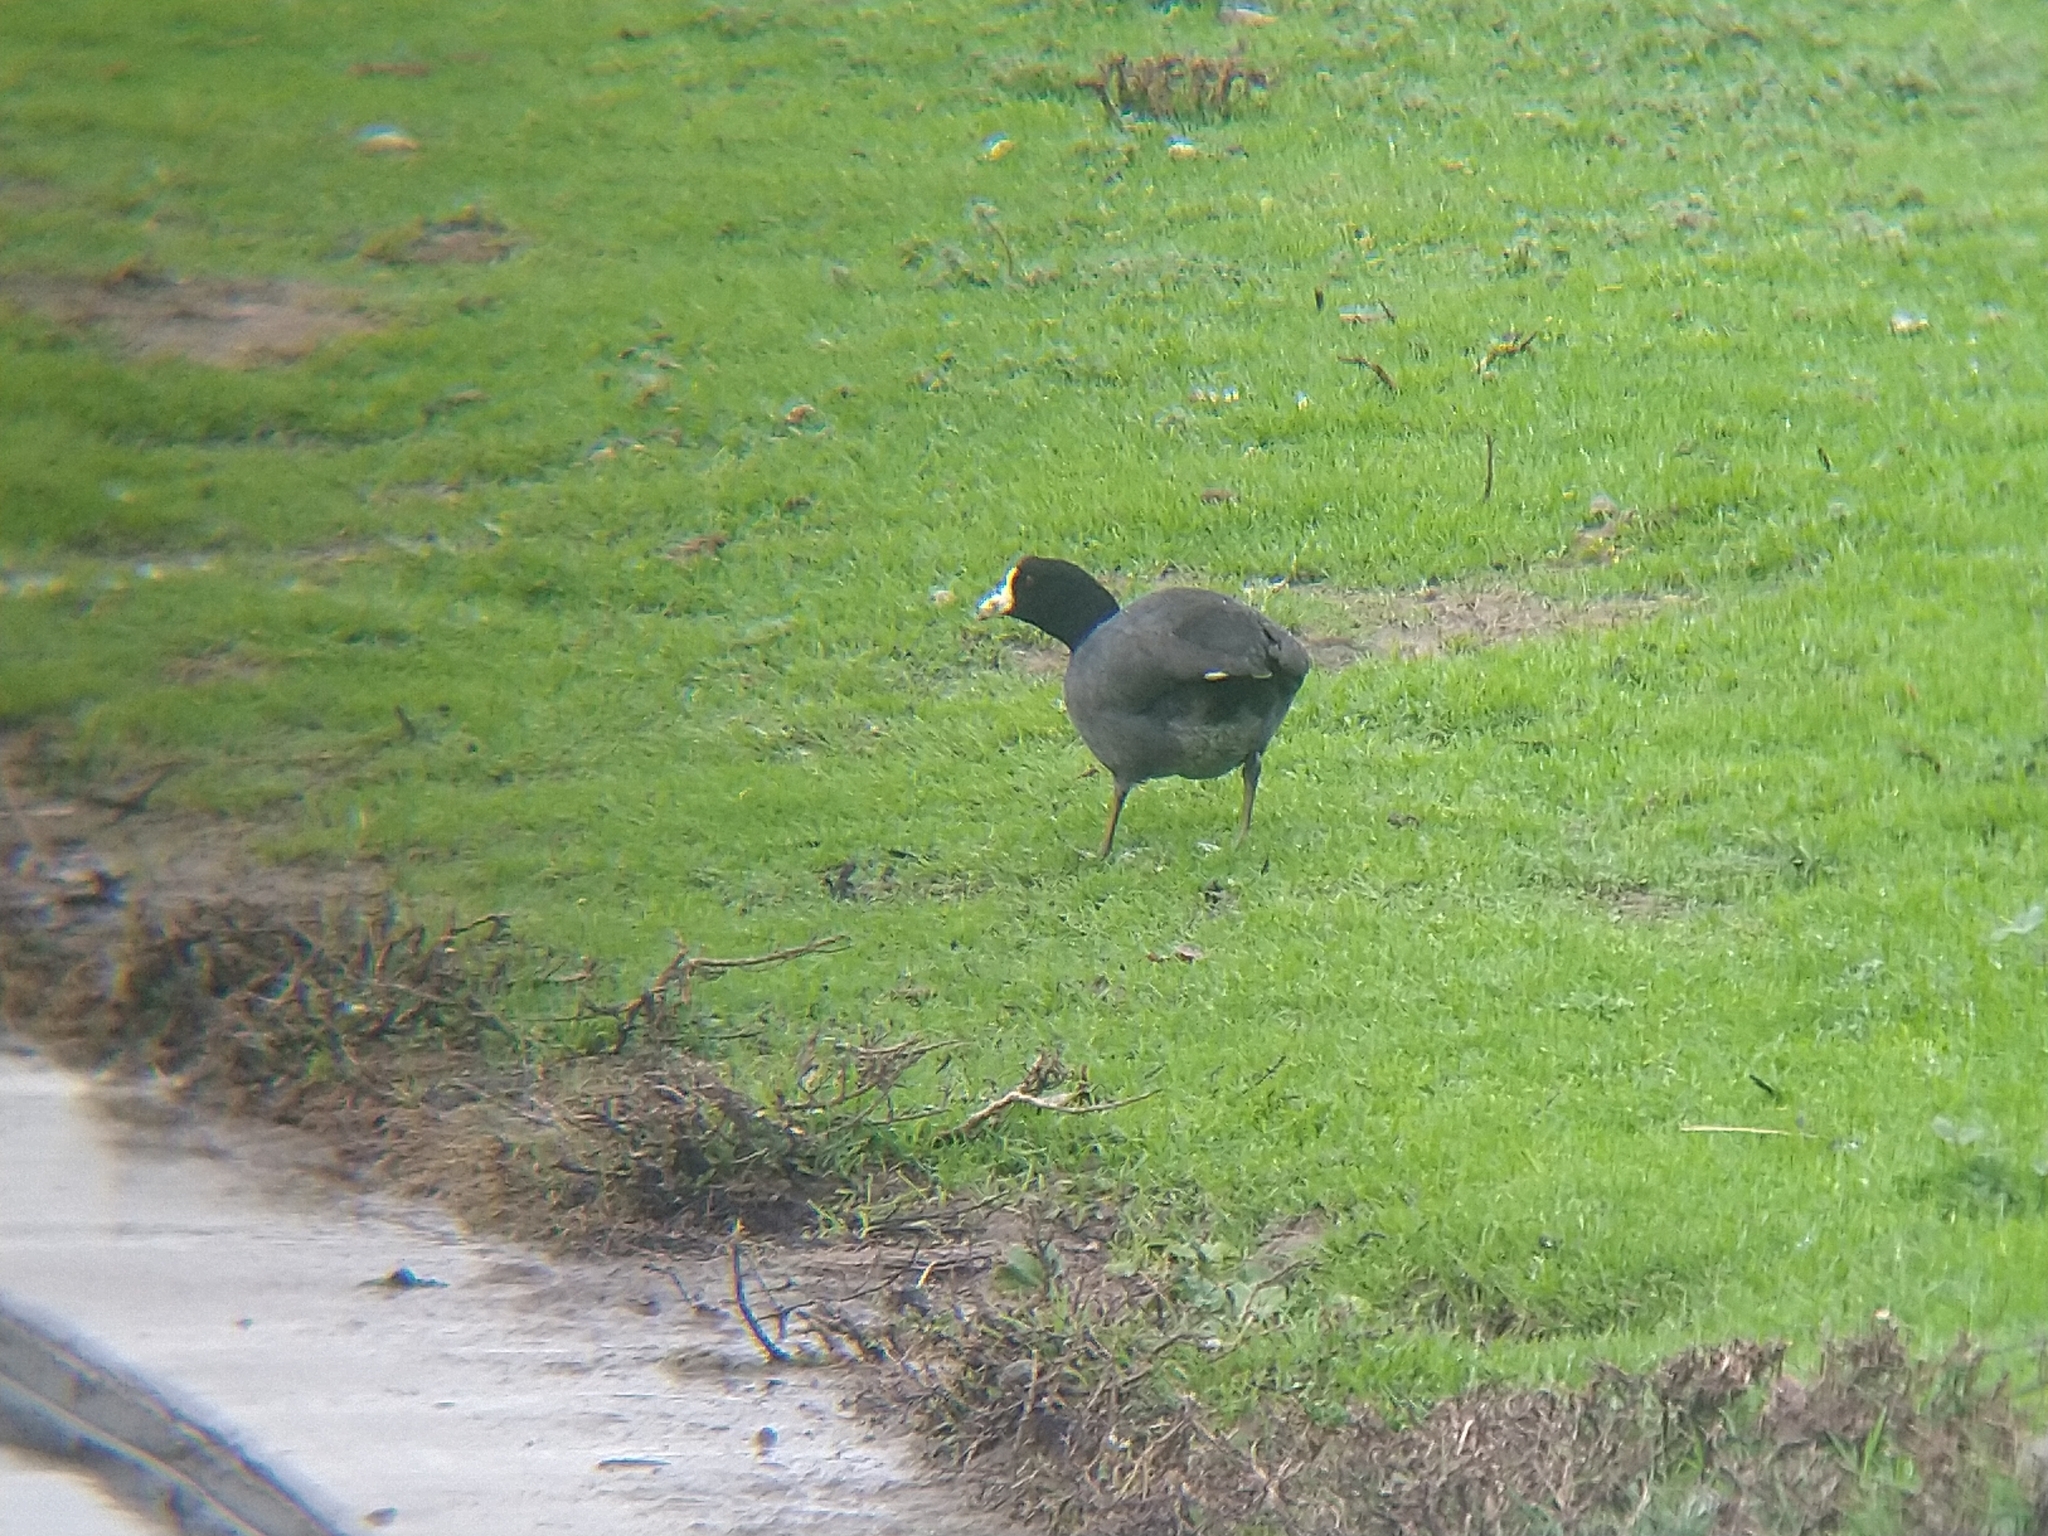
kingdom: Animalia
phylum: Chordata
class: Aves
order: Gruiformes
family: Rallidae
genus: Fulica
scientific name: Fulica americana
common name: American coot
